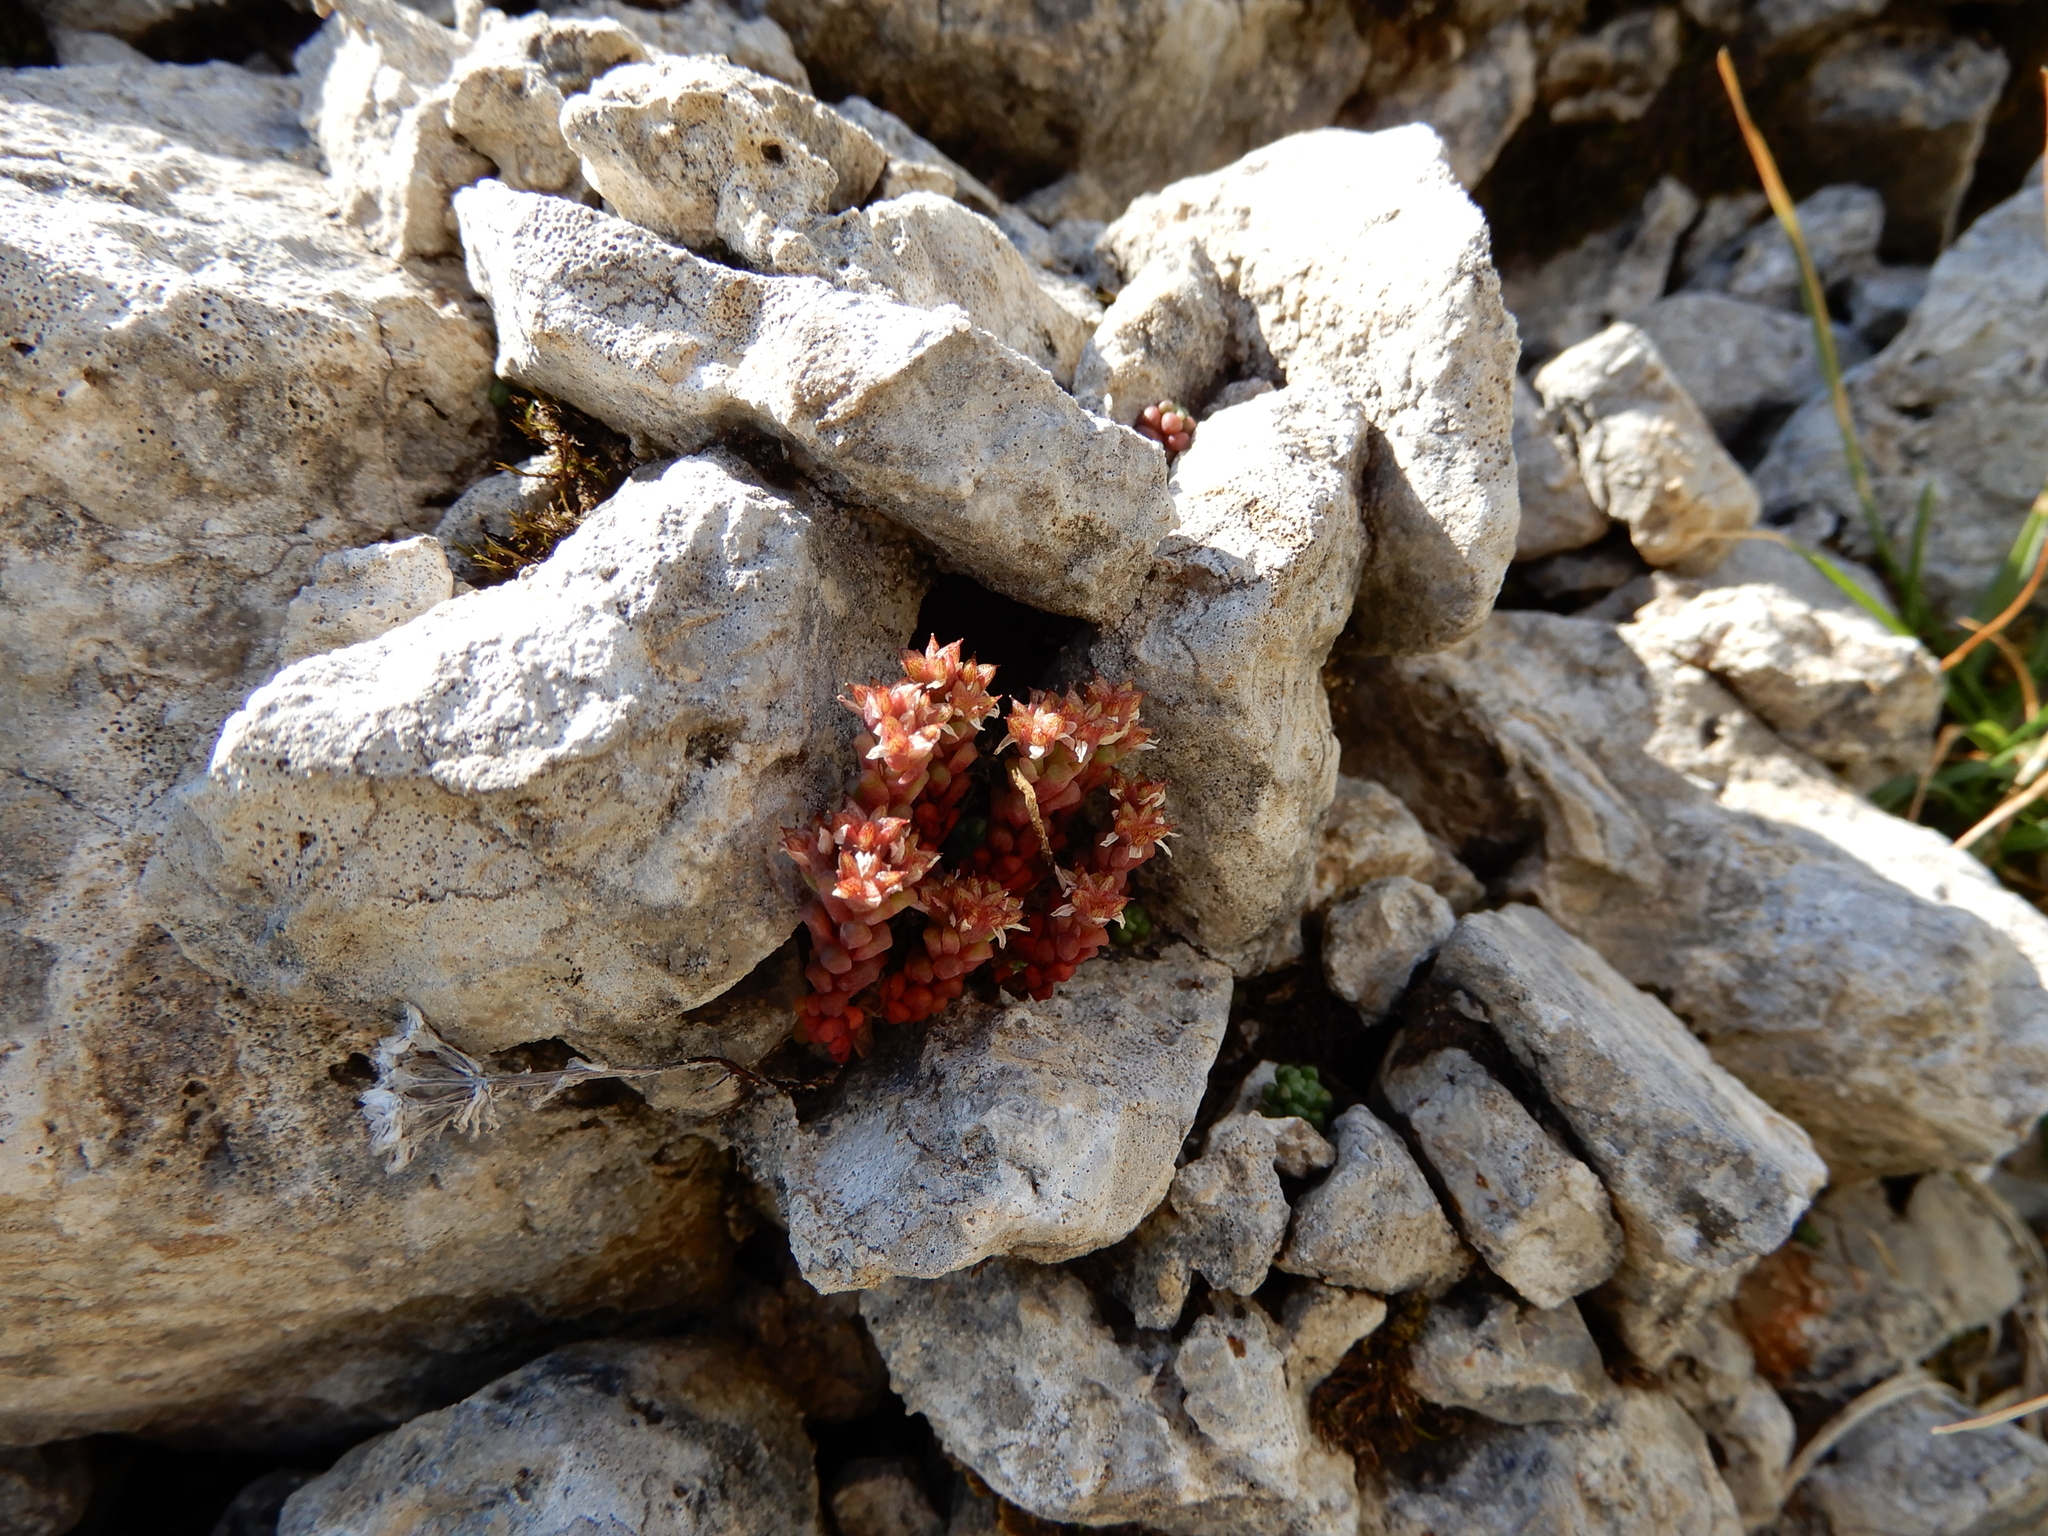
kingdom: Plantae
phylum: Tracheophyta
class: Magnoliopsida
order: Saxifragales
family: Crassulaceae
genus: Sedum
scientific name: Sedum atratum
